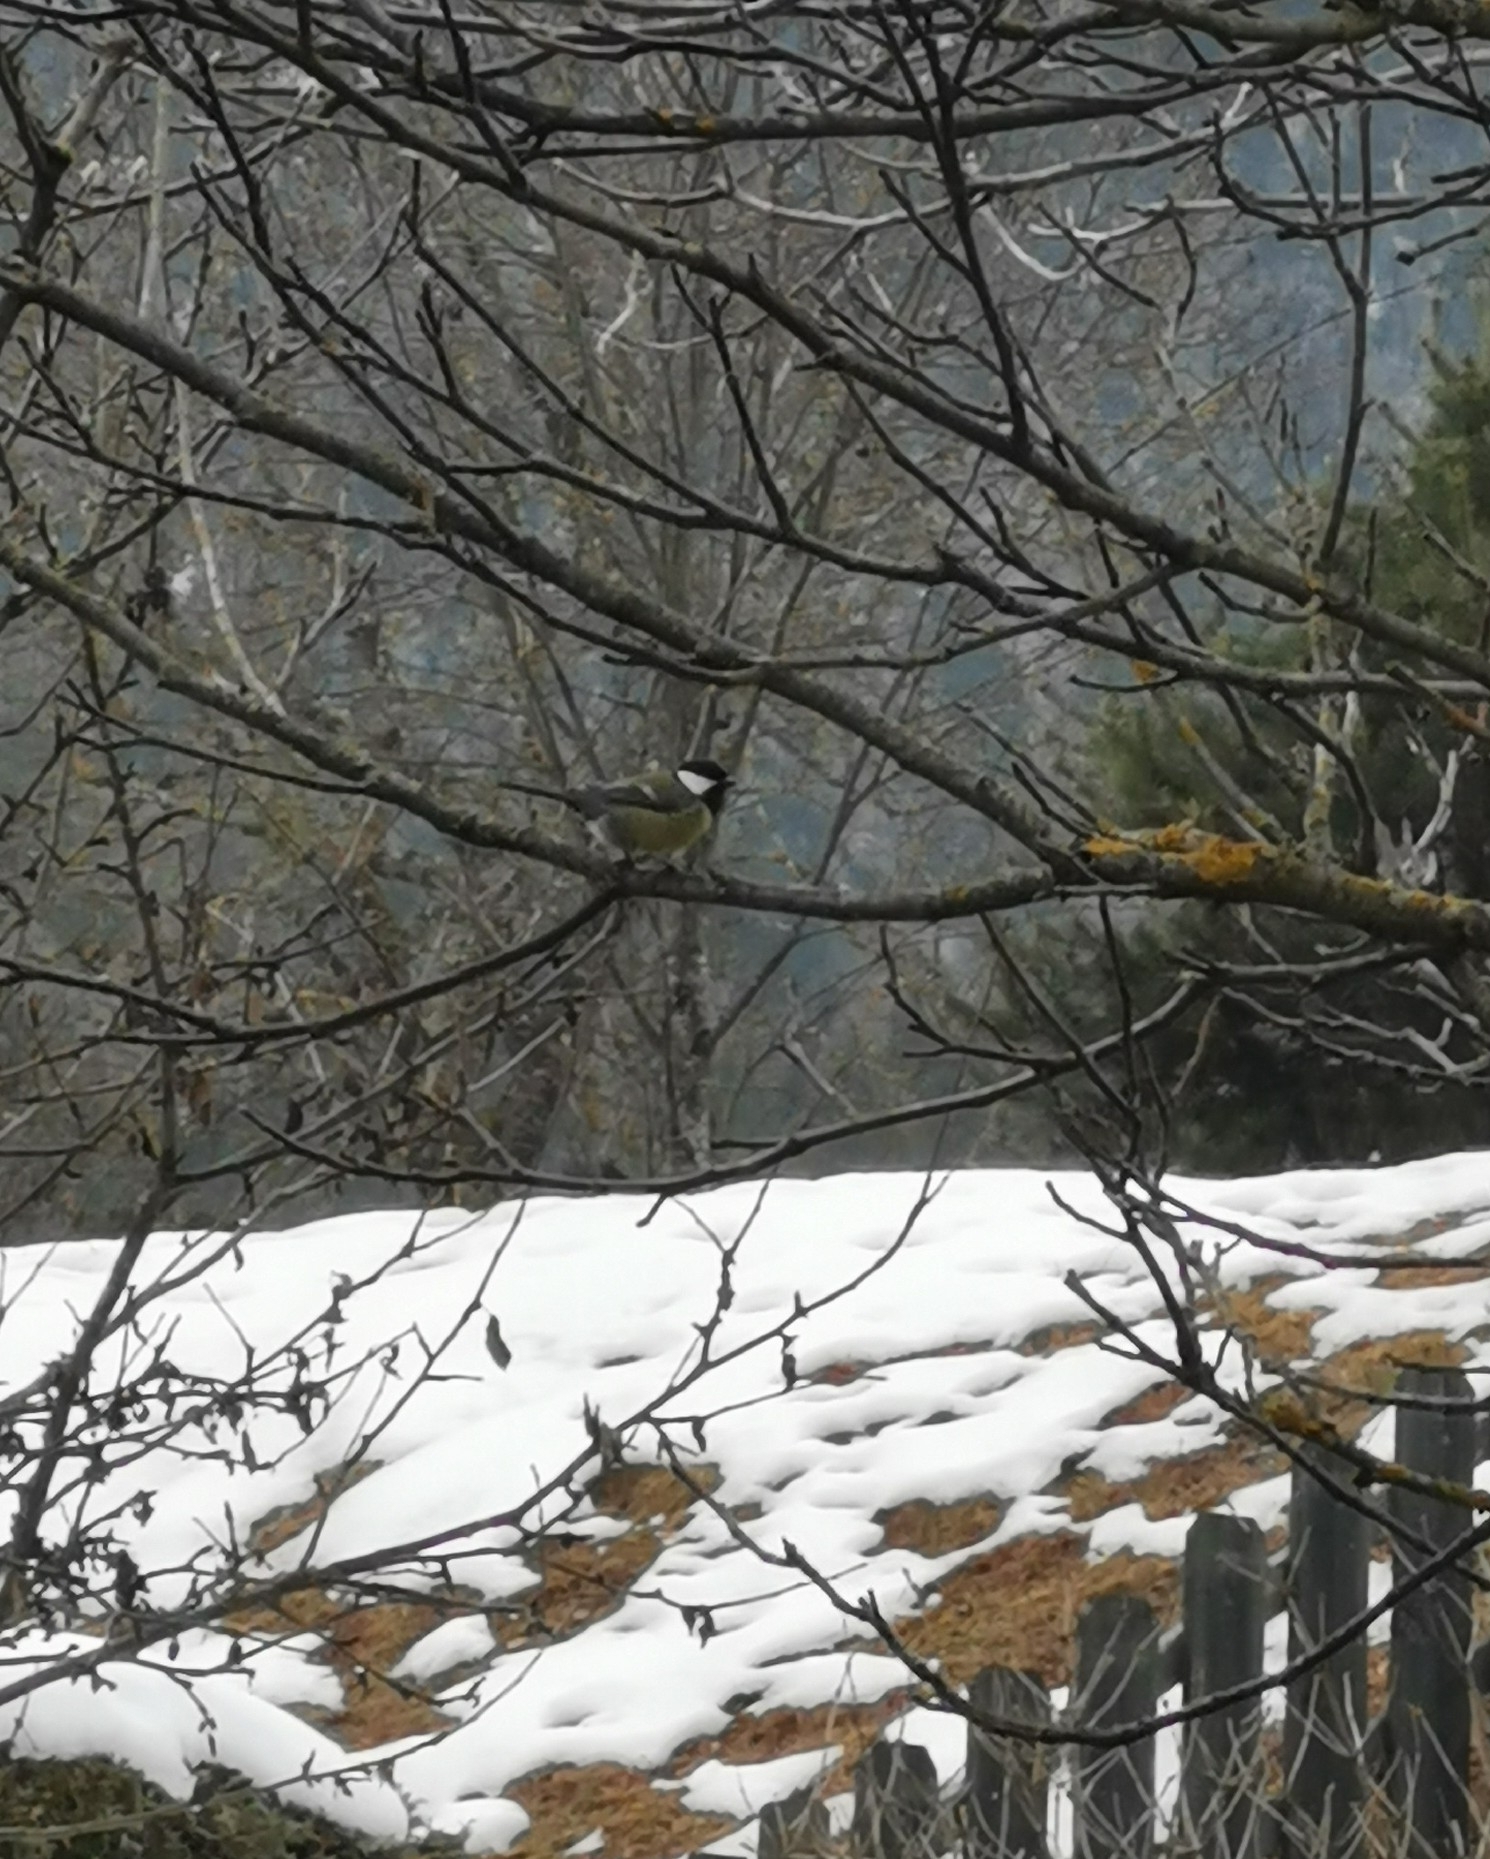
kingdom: Animalia
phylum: Chordata
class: Aves
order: Passeriformes
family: Paridae
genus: Parus
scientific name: Parus major
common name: Great tit
